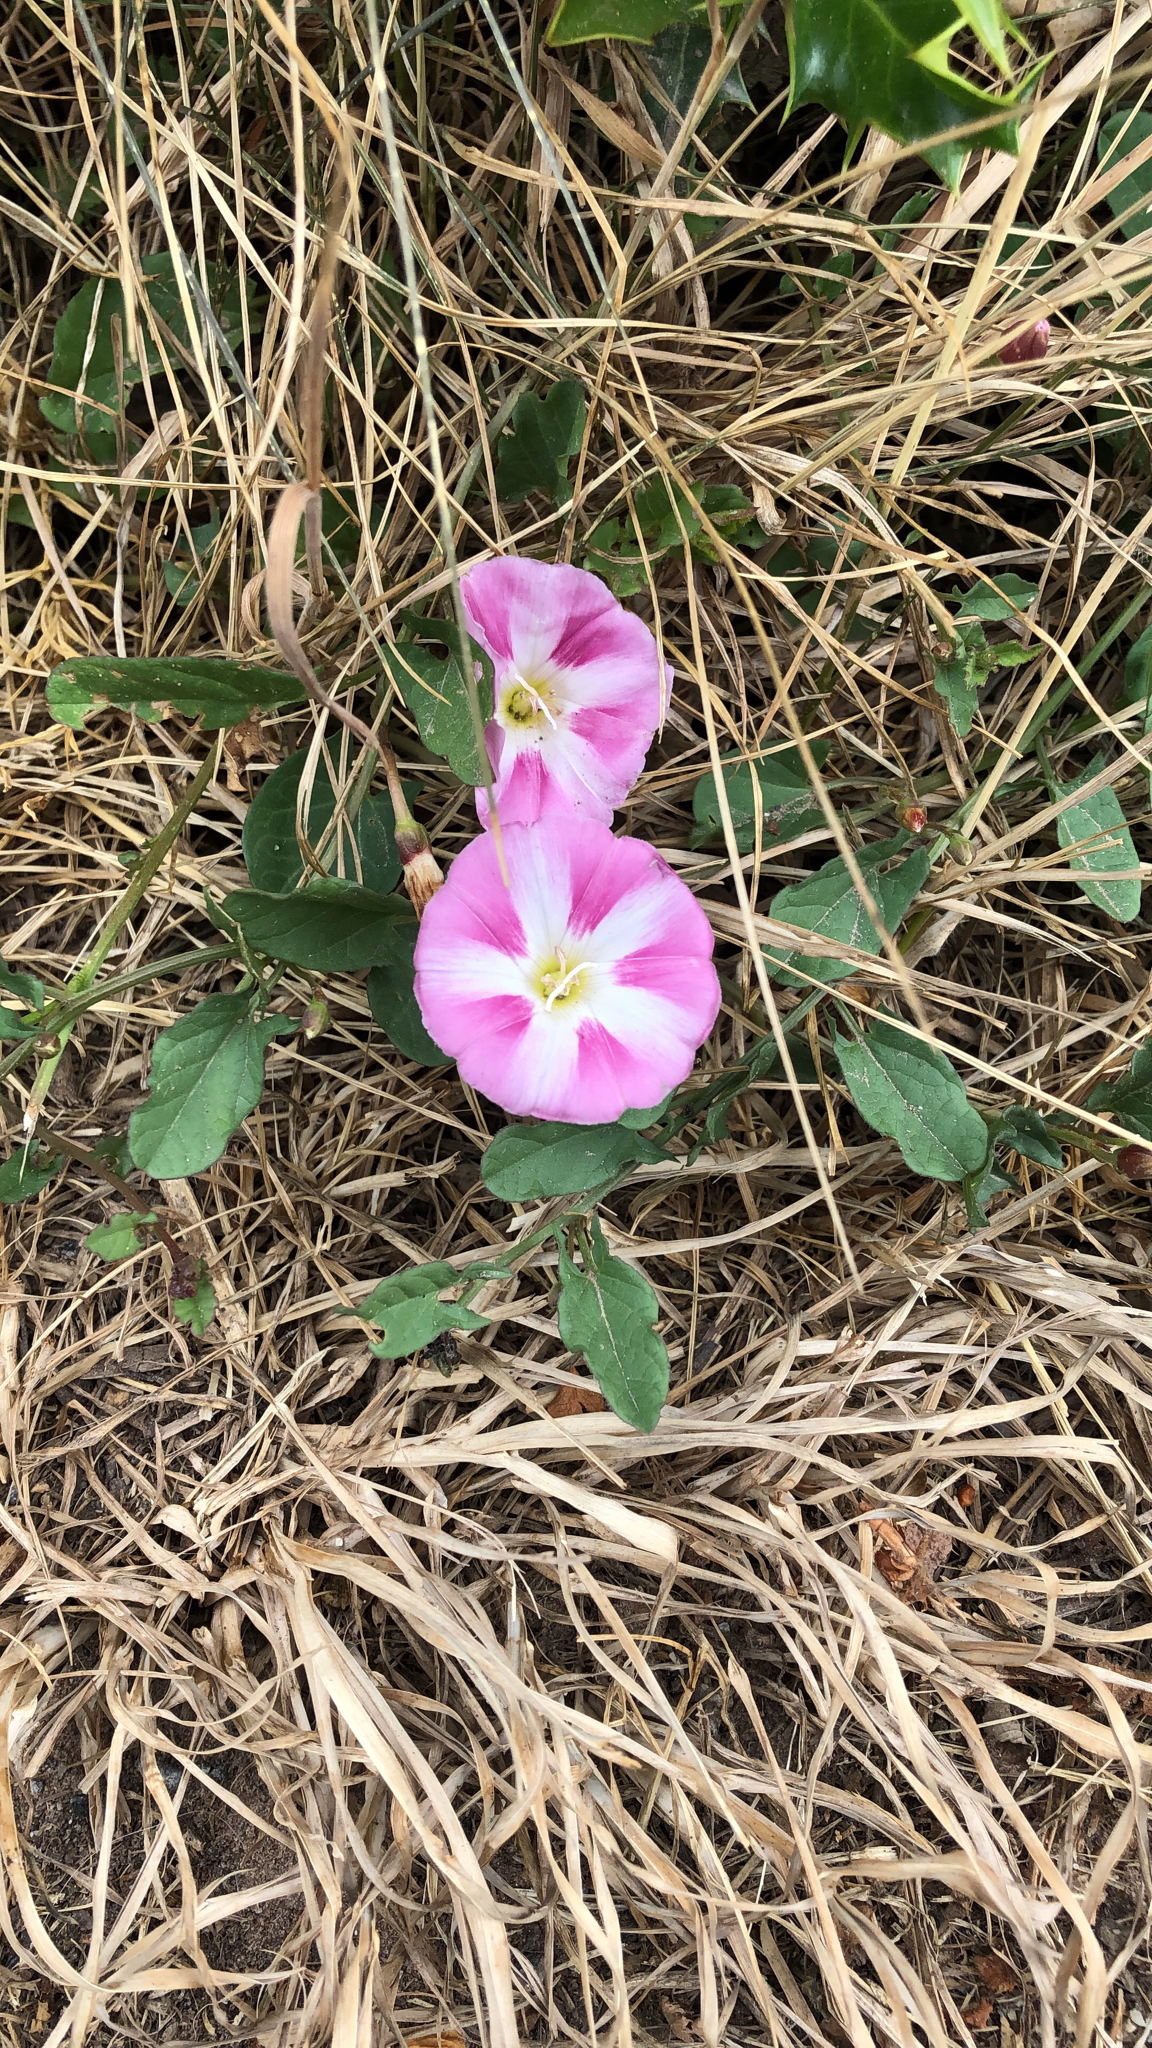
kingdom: Plantae
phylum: Tracheophyta
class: Magnoliopsida
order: Solanales
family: Convolvulaceae
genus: Convolvulus
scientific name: Convolvulus arvensis
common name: Field bindweed
